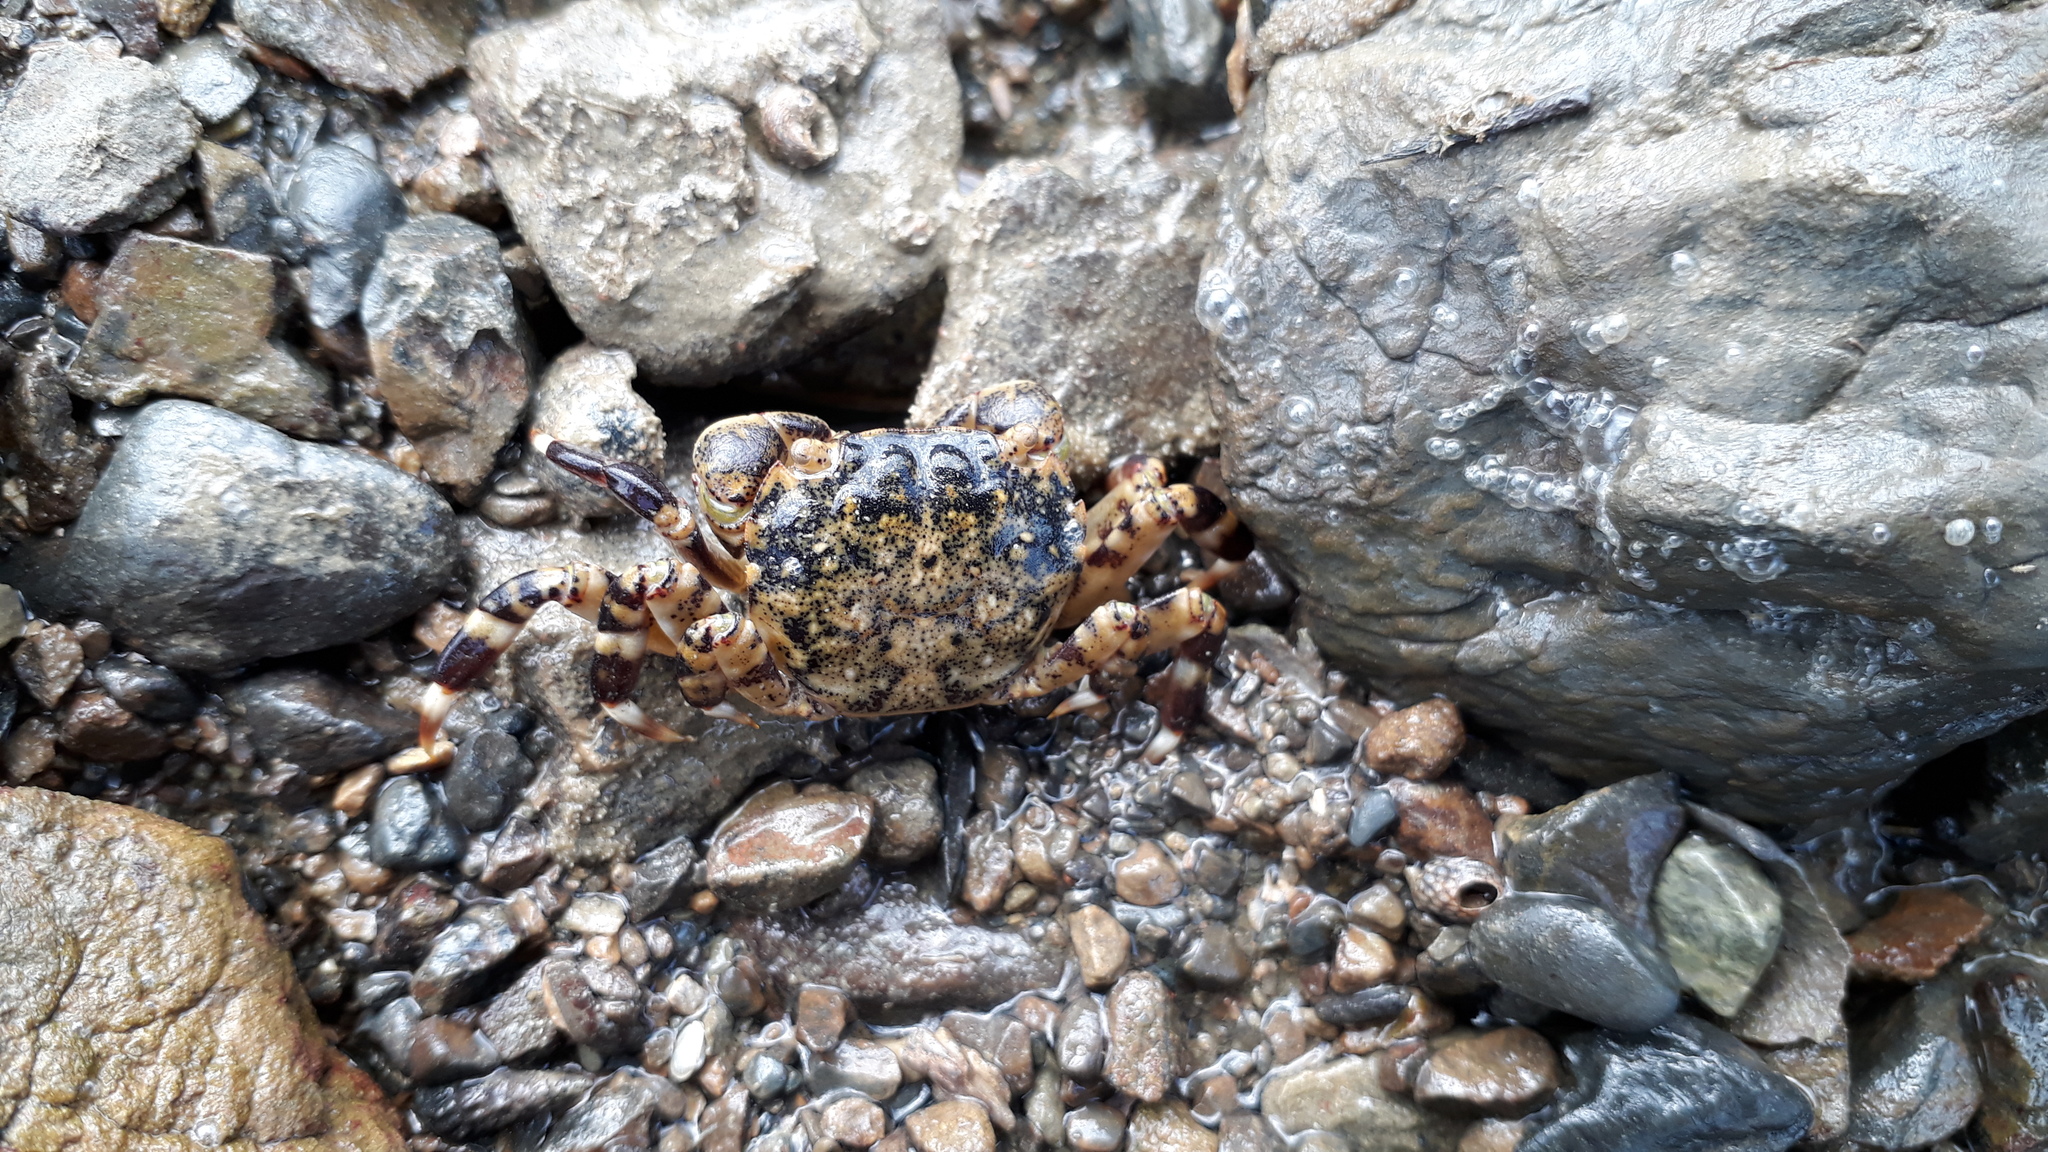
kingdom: Animalia
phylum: Arthropoda
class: Malacostraca
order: Decapoda
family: Varunidae
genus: Hemigrapsus
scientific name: Hemigrapsus sexdentatus
